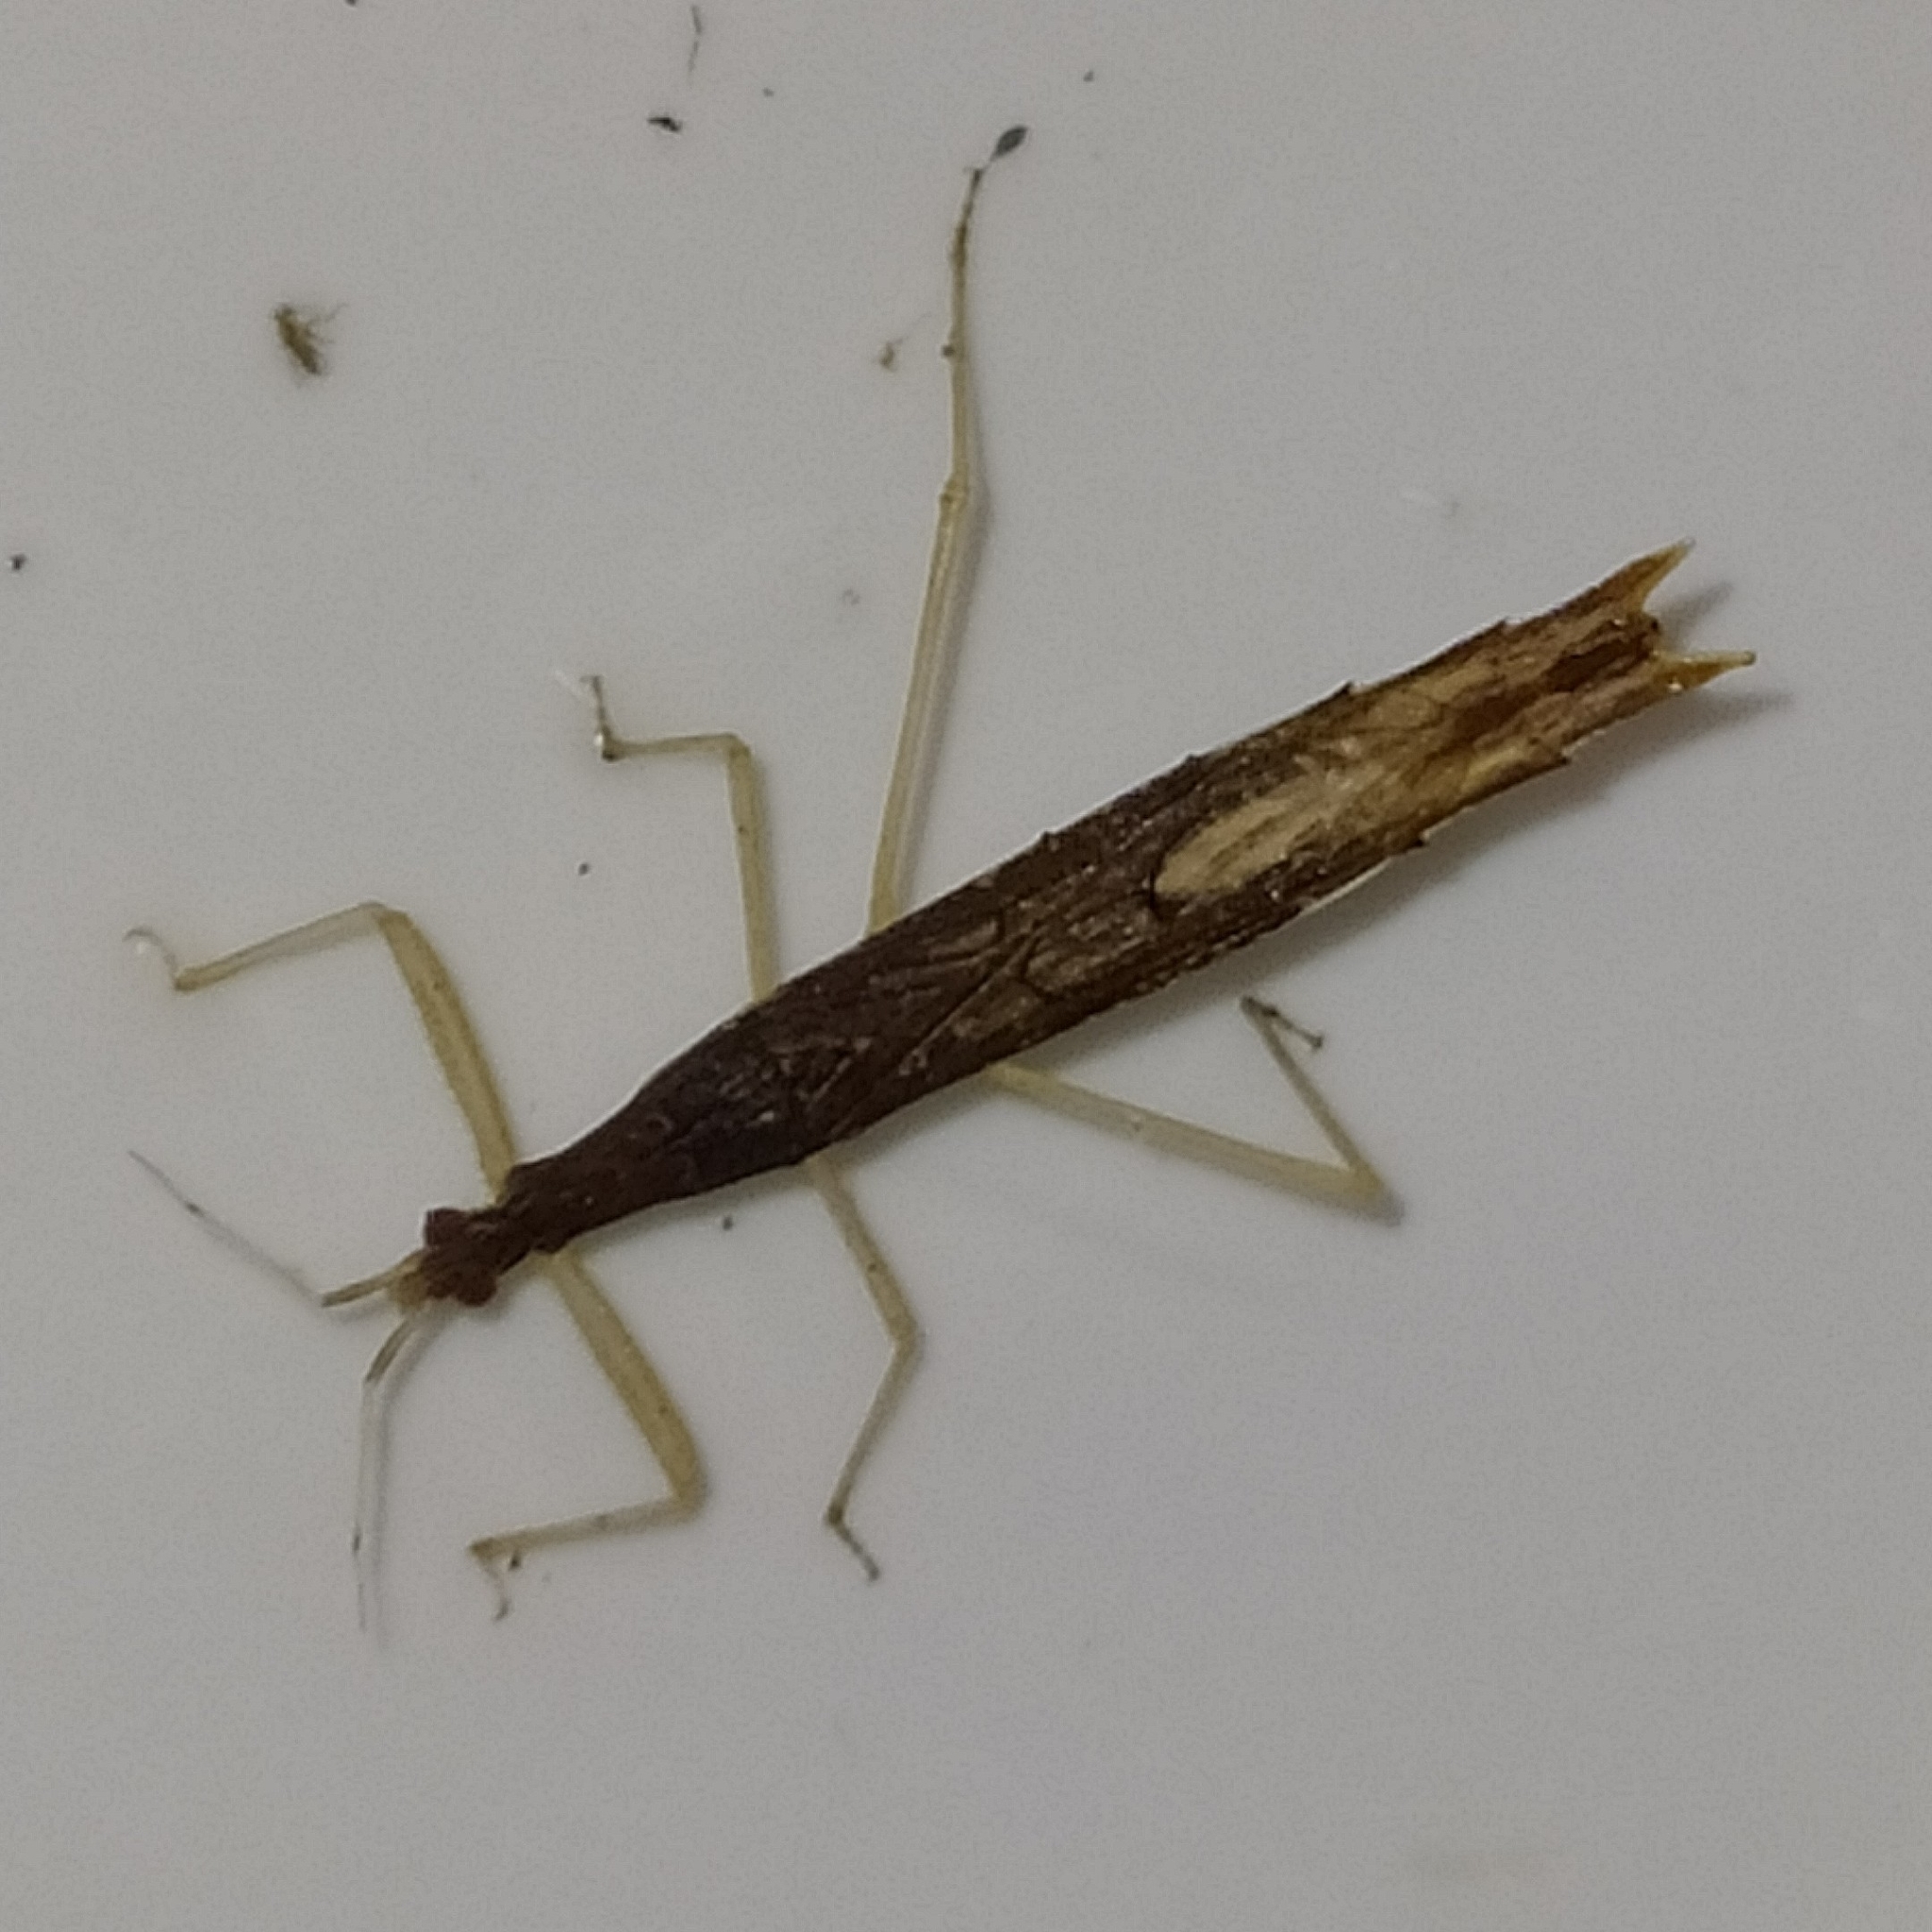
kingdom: Animalia
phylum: Arthropoda
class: Insecta
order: Hemiptera
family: Reduviidae
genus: Ctenotrachelus
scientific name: Ctenotrachelus kwataensis
